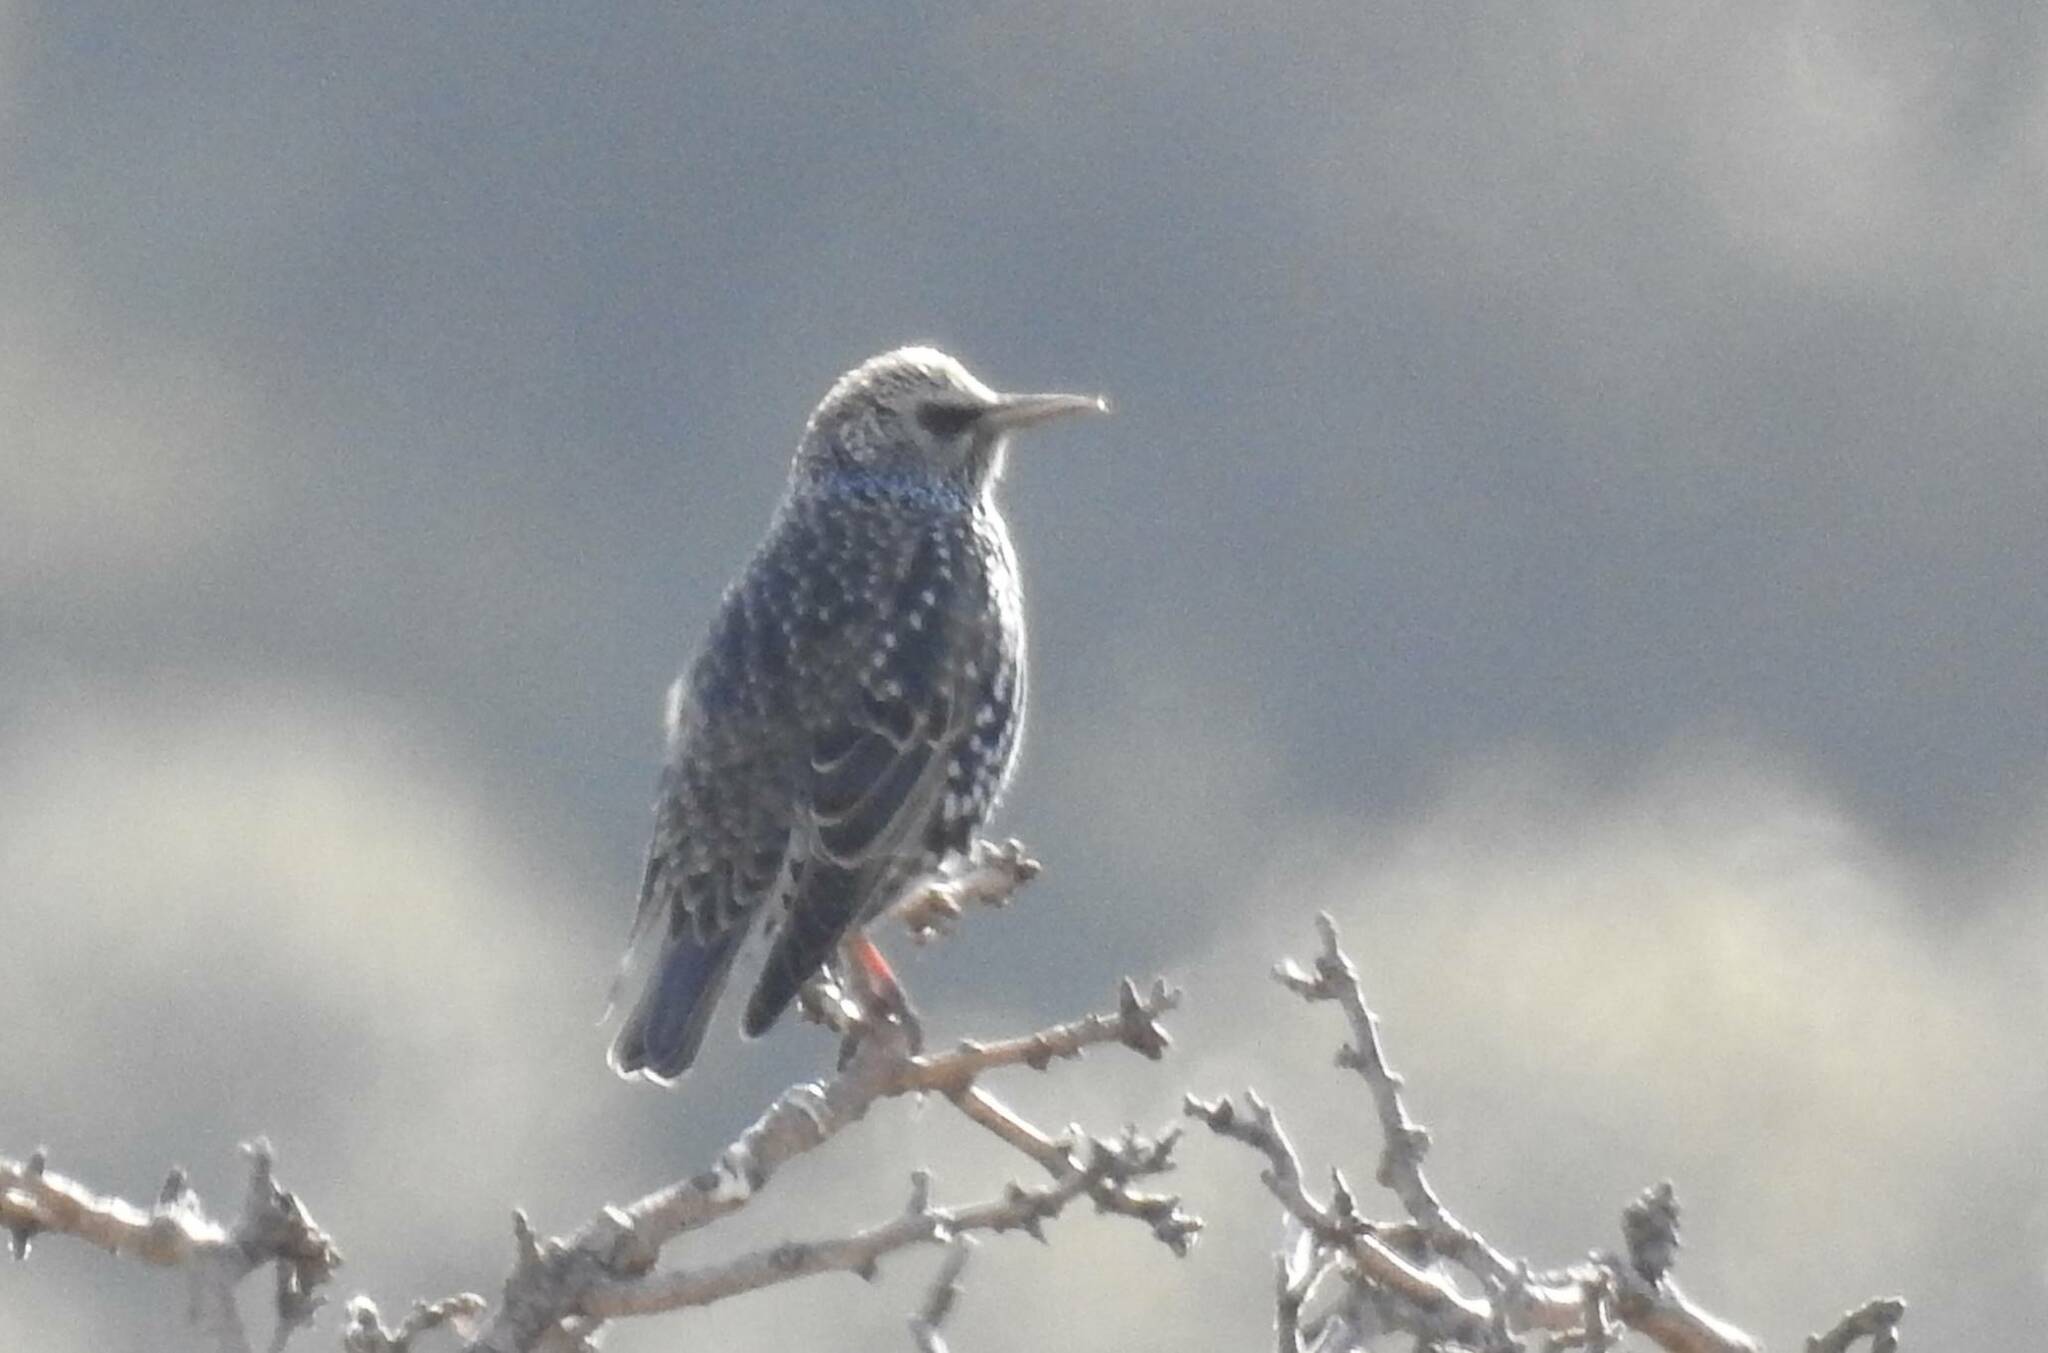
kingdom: Animalia
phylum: Chordata
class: Aves
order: Passeriformes
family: Sturnidae
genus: Sturnus
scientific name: Sturnus vulgaris
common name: Common starling
